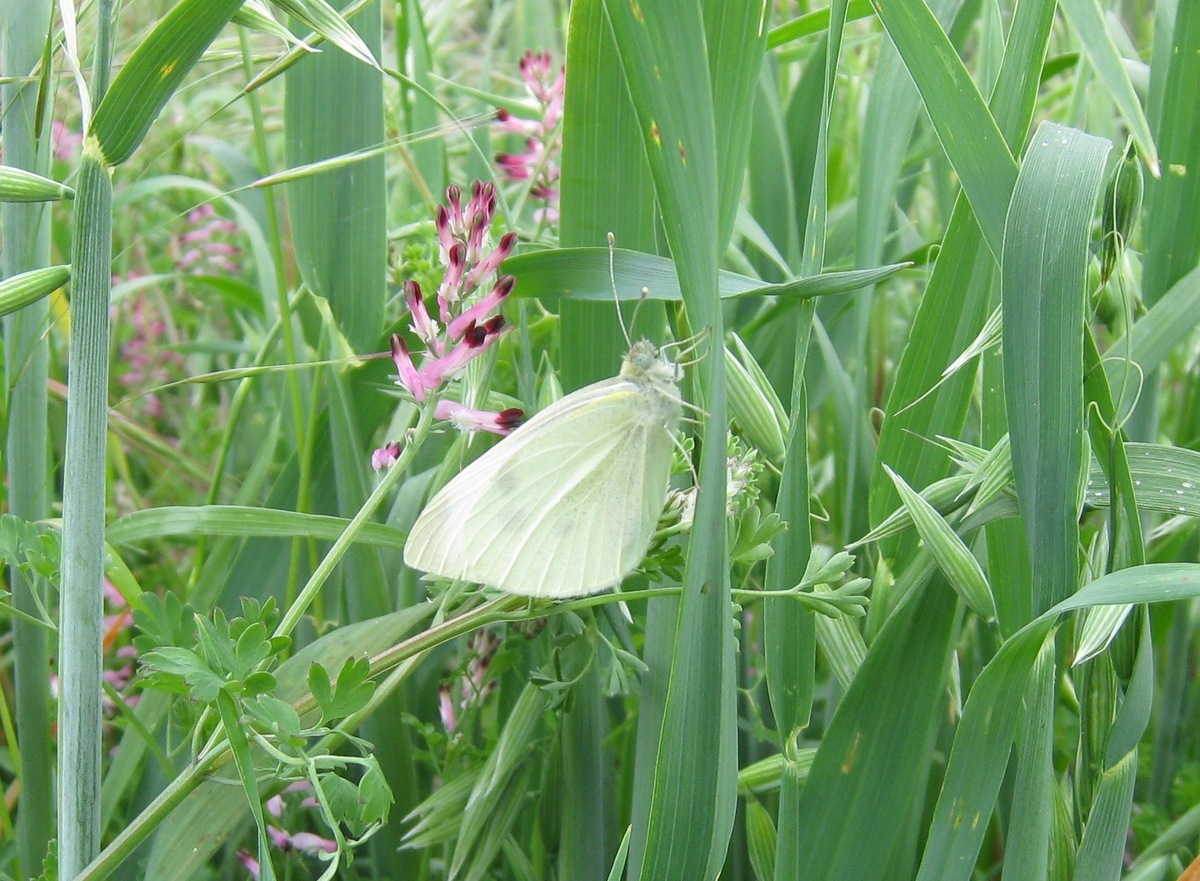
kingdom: Animalia
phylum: Arthropoda
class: Insecta
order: Lepidoptera
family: Pieridae
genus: Pieris
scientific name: Pieris rapae
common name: Small white
